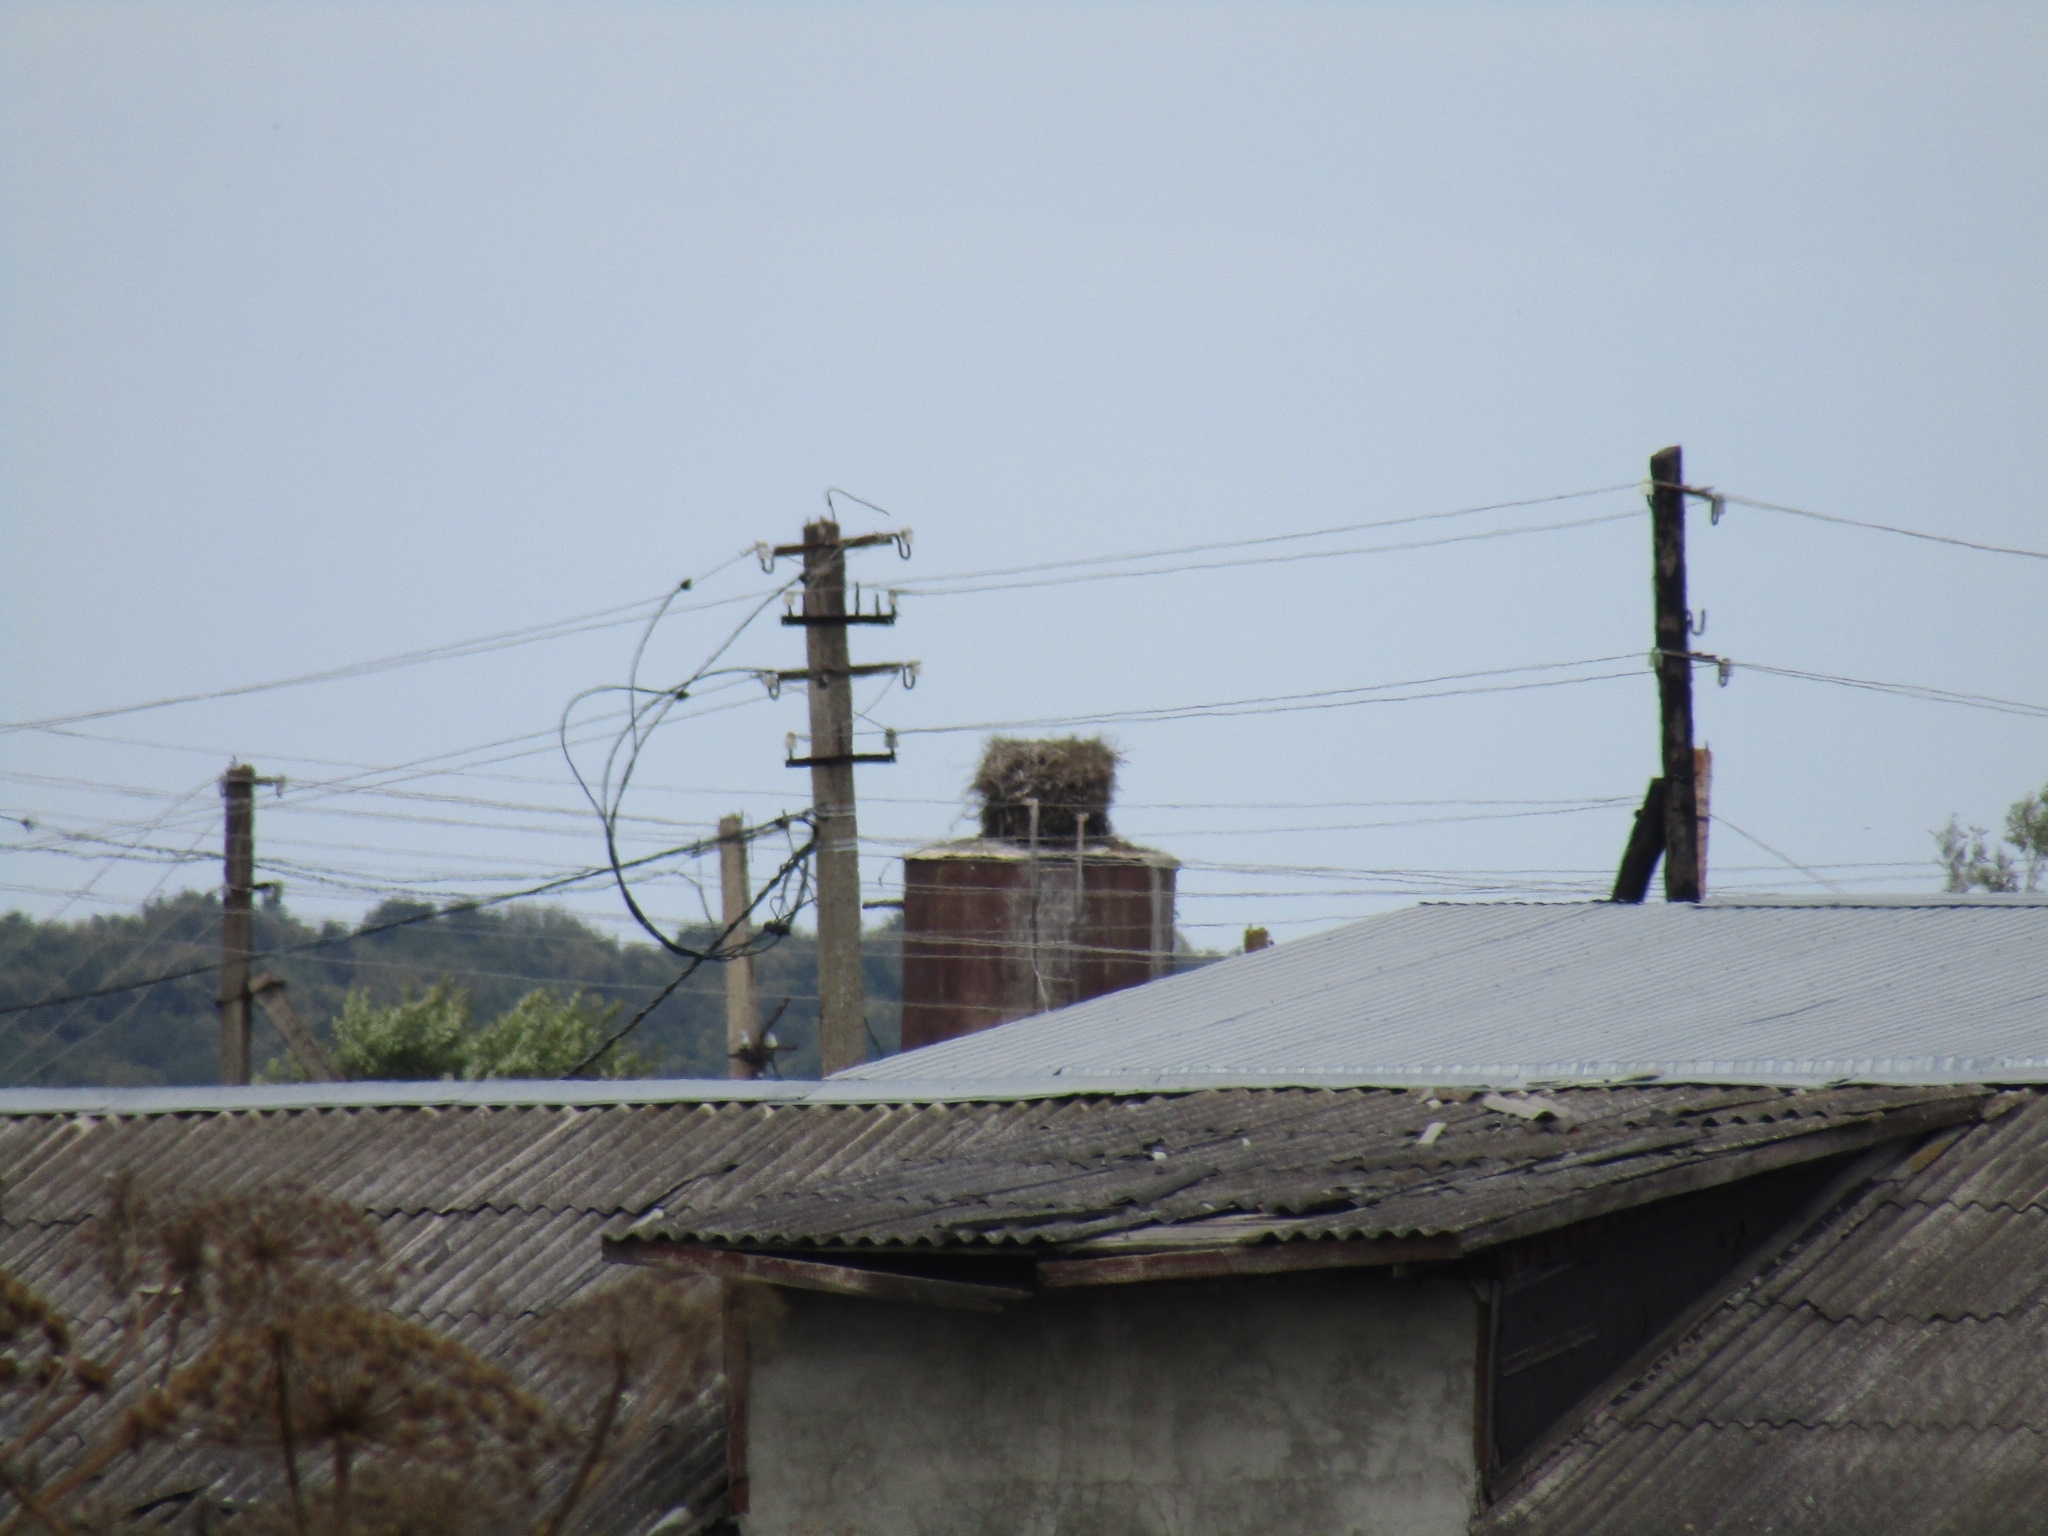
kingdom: Animalia
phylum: Chordata
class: Aves
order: Ciconiiformes
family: Ciconiidae
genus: Ciconia
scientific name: Ciconia ciconia
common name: White stork
